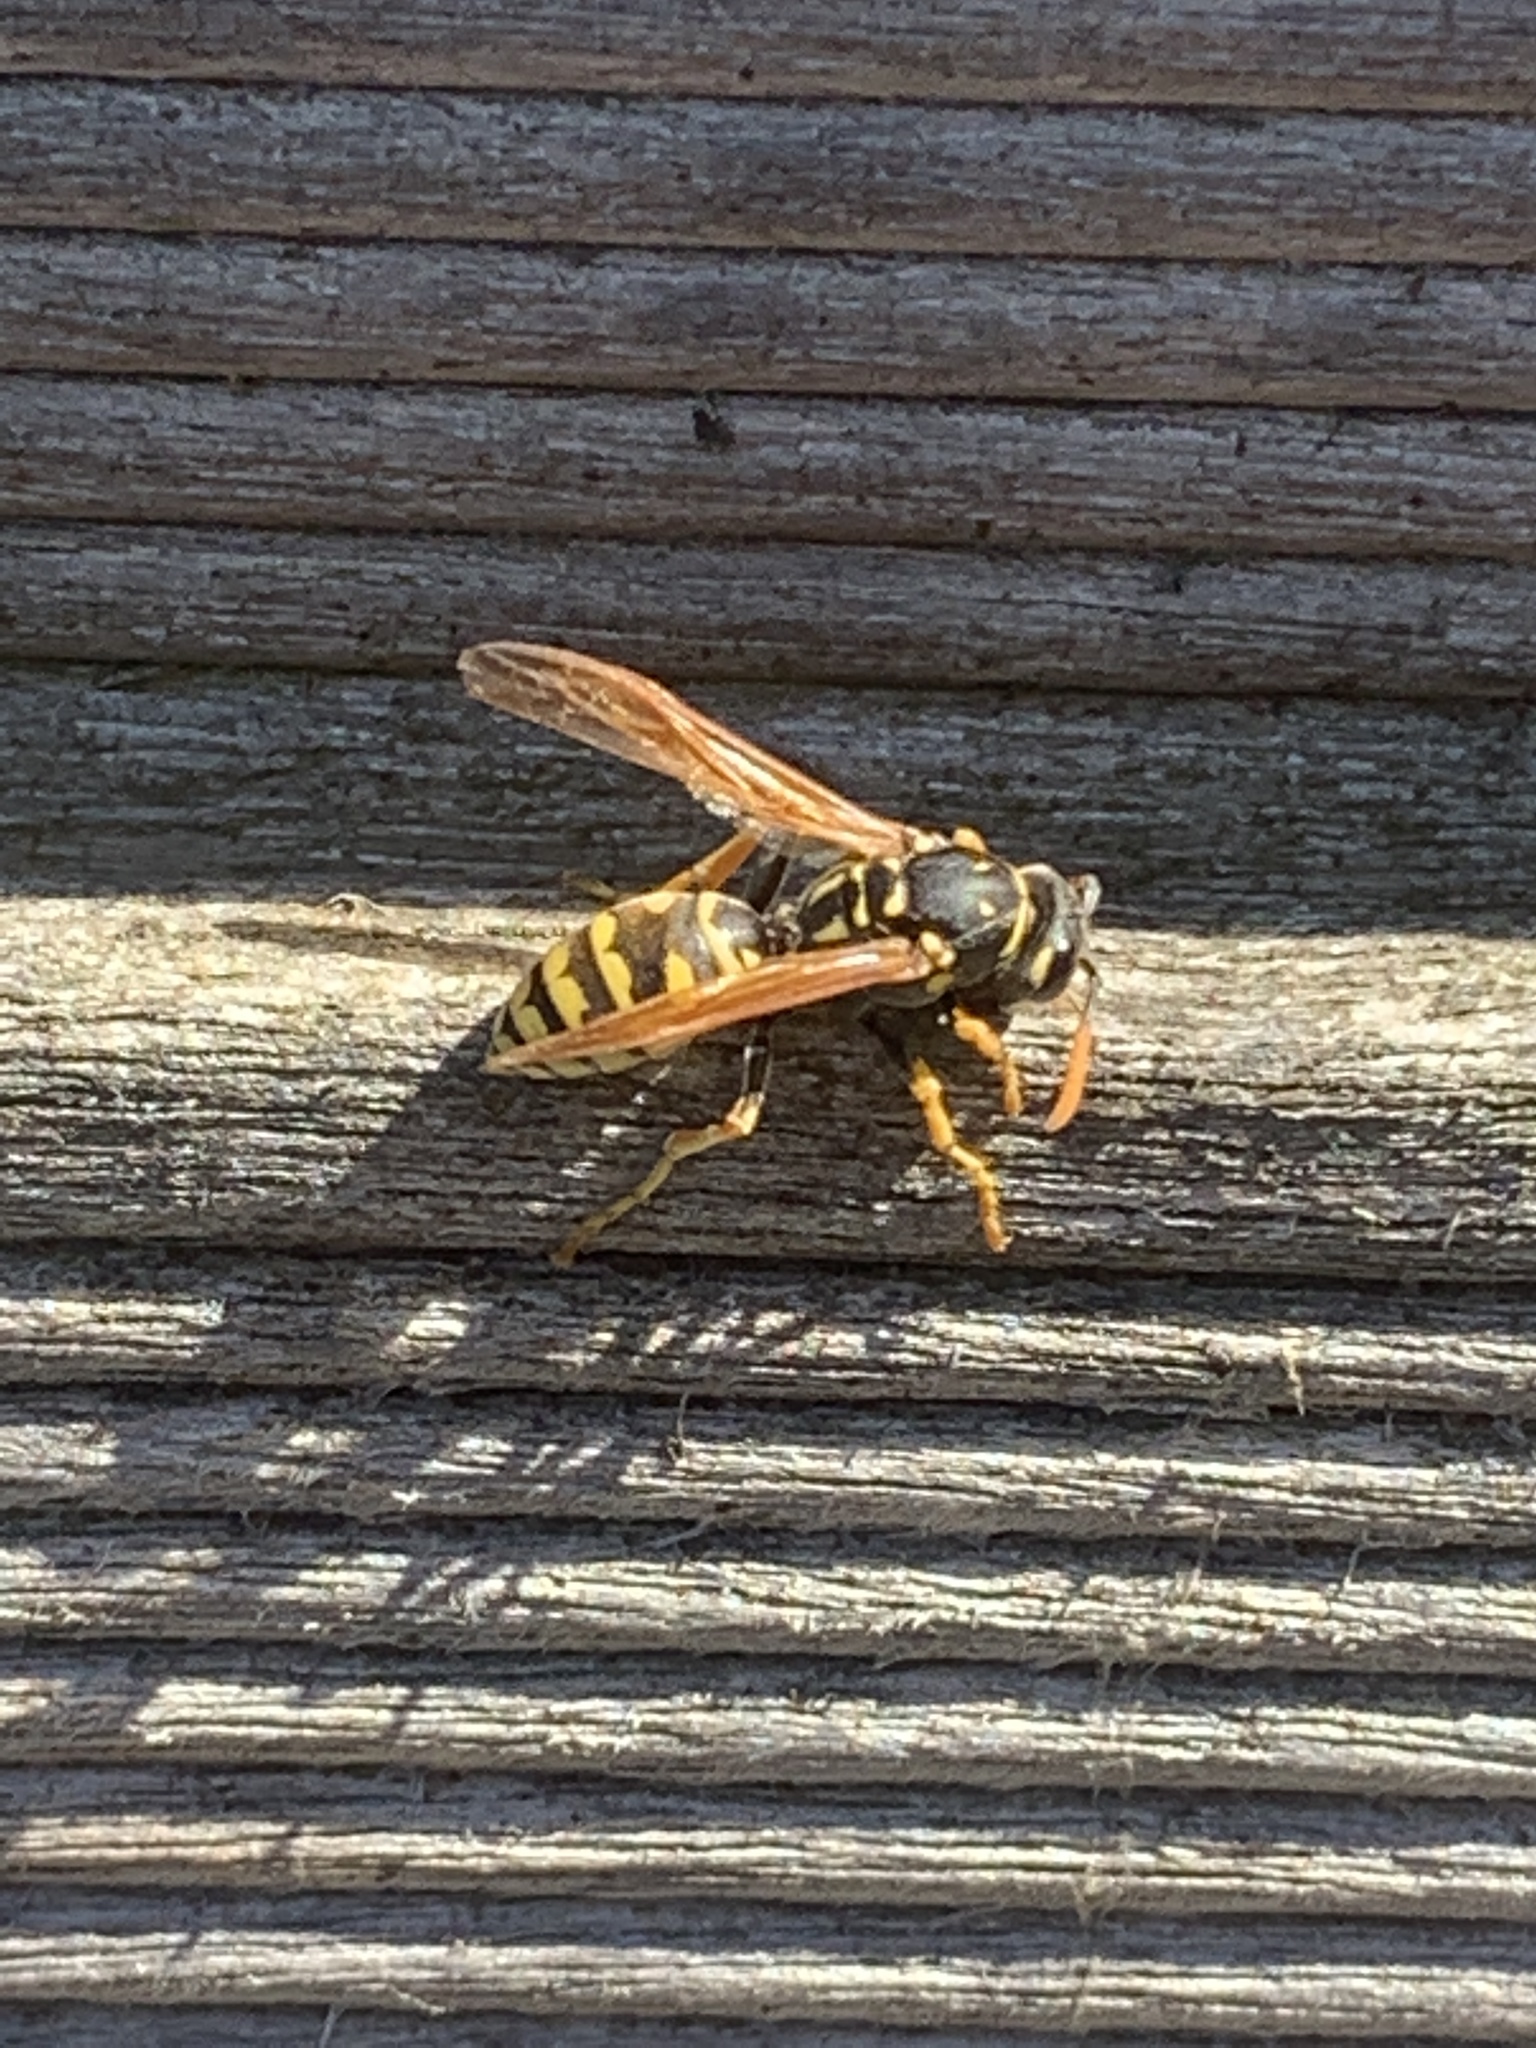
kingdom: Animalia
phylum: Arthropoda
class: Insecta
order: Hymenoptera
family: Eumenidae
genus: Polistes
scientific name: Polistes dominula
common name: Paper wasp
